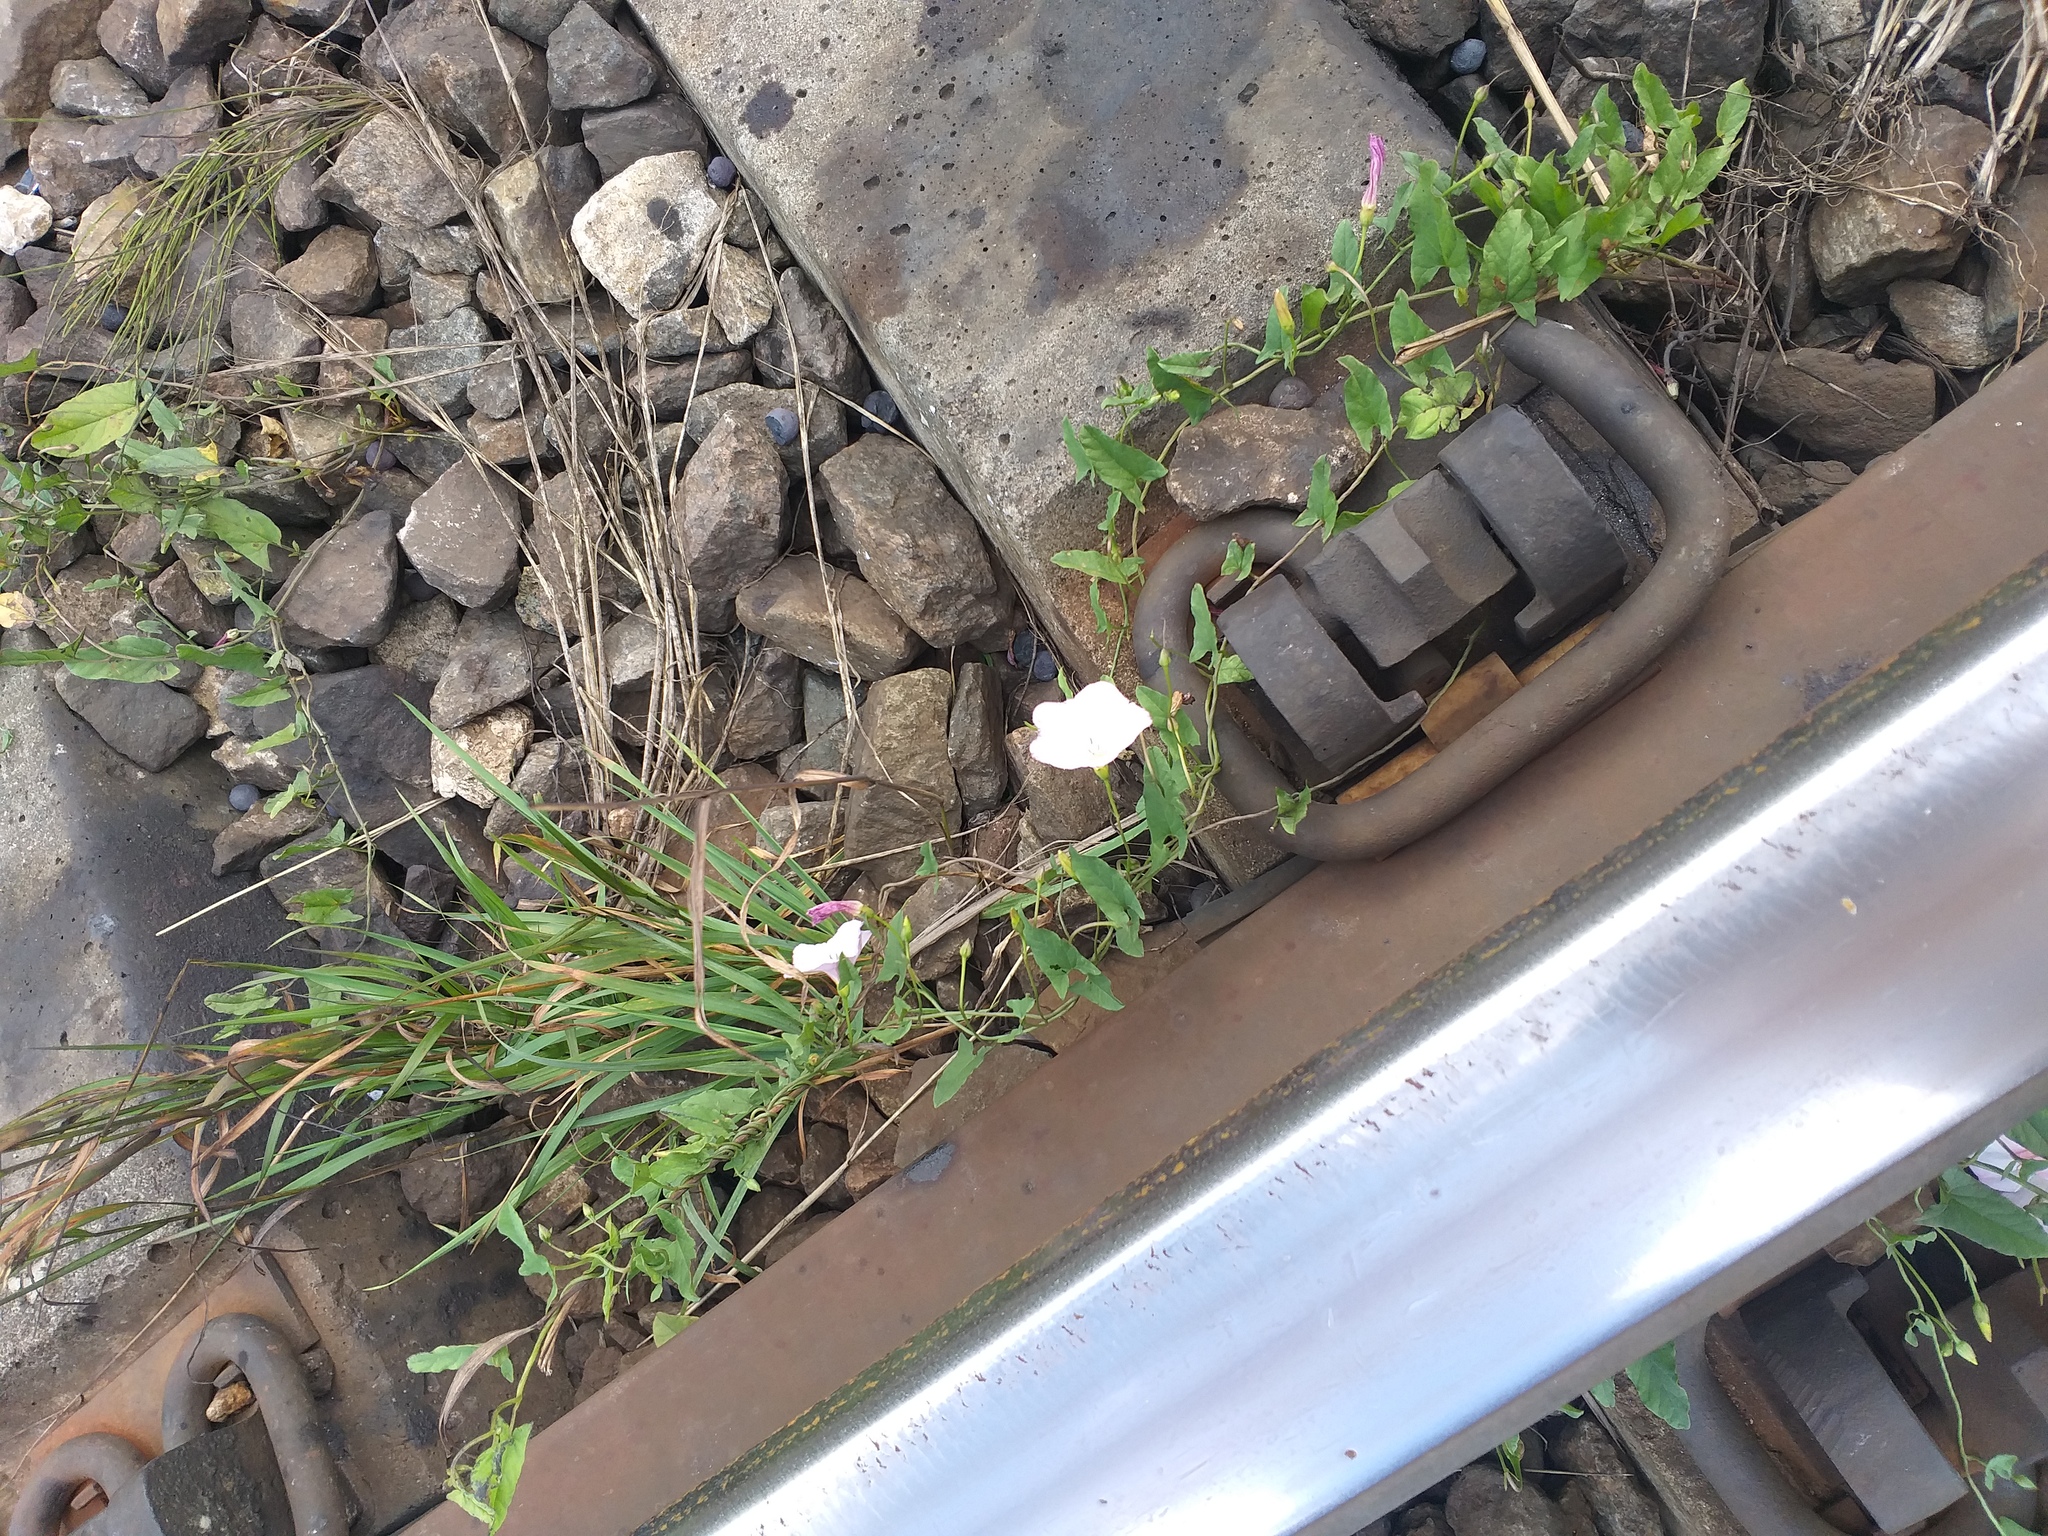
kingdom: Plantae
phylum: Tracheophyta
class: Magnoliopsida
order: Solanales
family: Convolvulaceae
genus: Convolvulus
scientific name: Convolvulus arvensis
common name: Field bindweed
